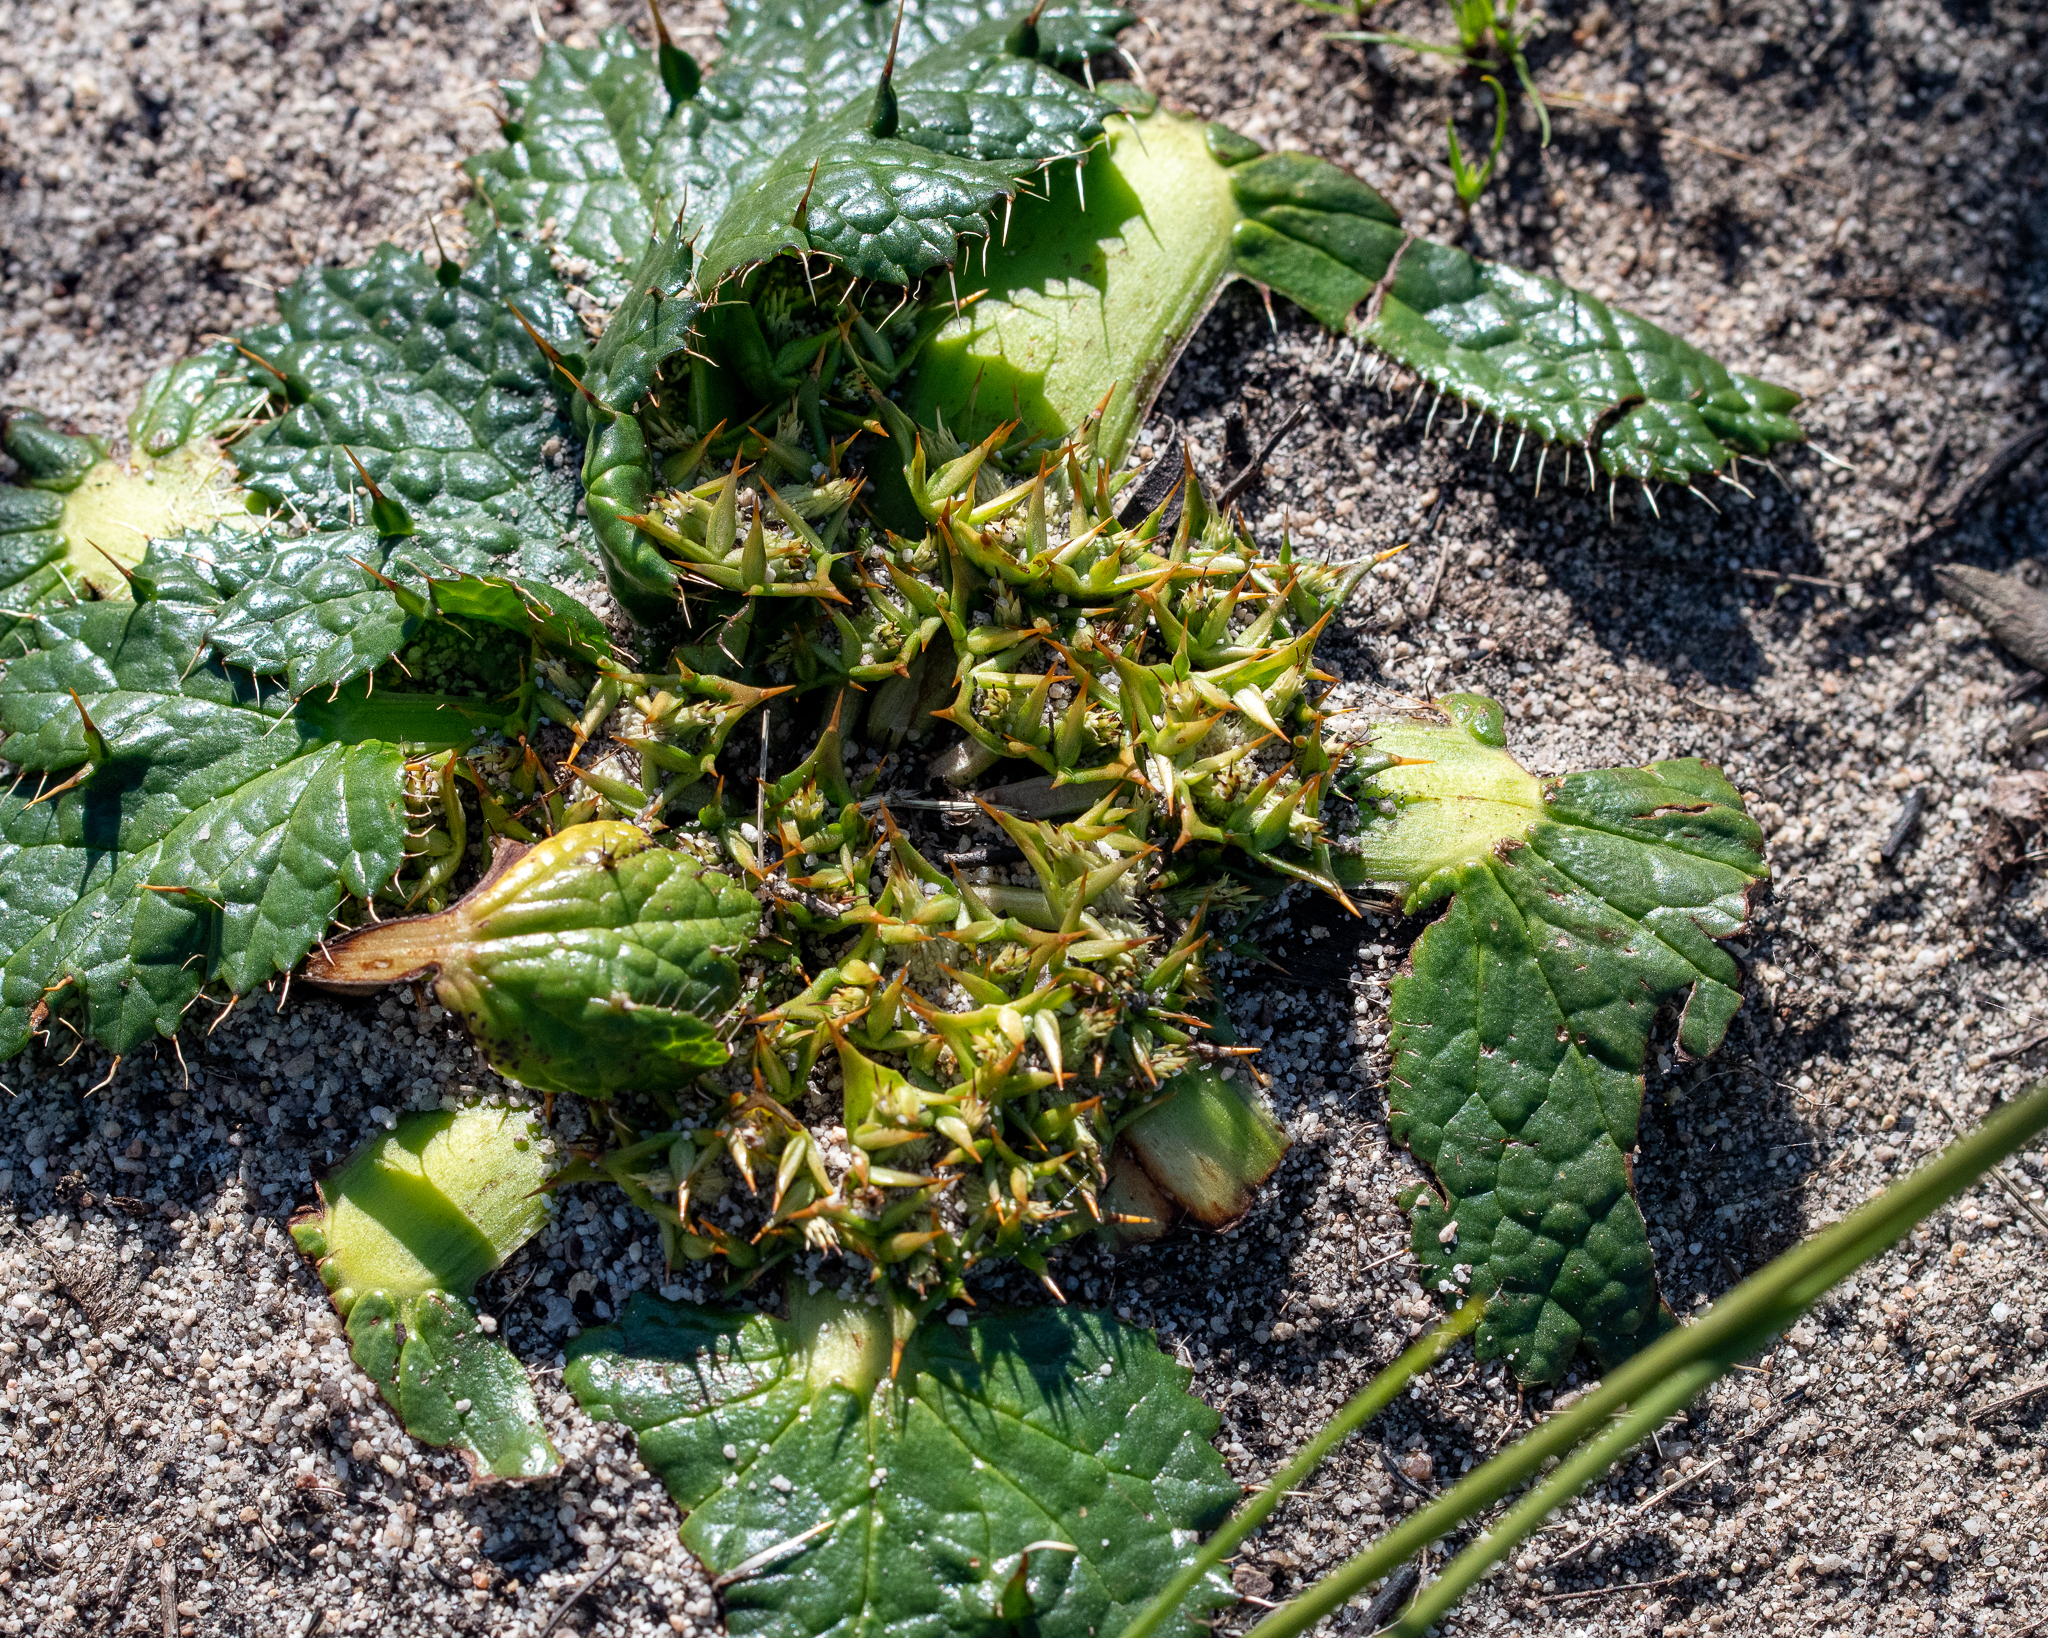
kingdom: Plantae
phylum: Tracheophyta
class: Magnoliopsida
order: Apiales
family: Apiaceae
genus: Arctopus
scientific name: Arctopus echinatus
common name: Platdoring
